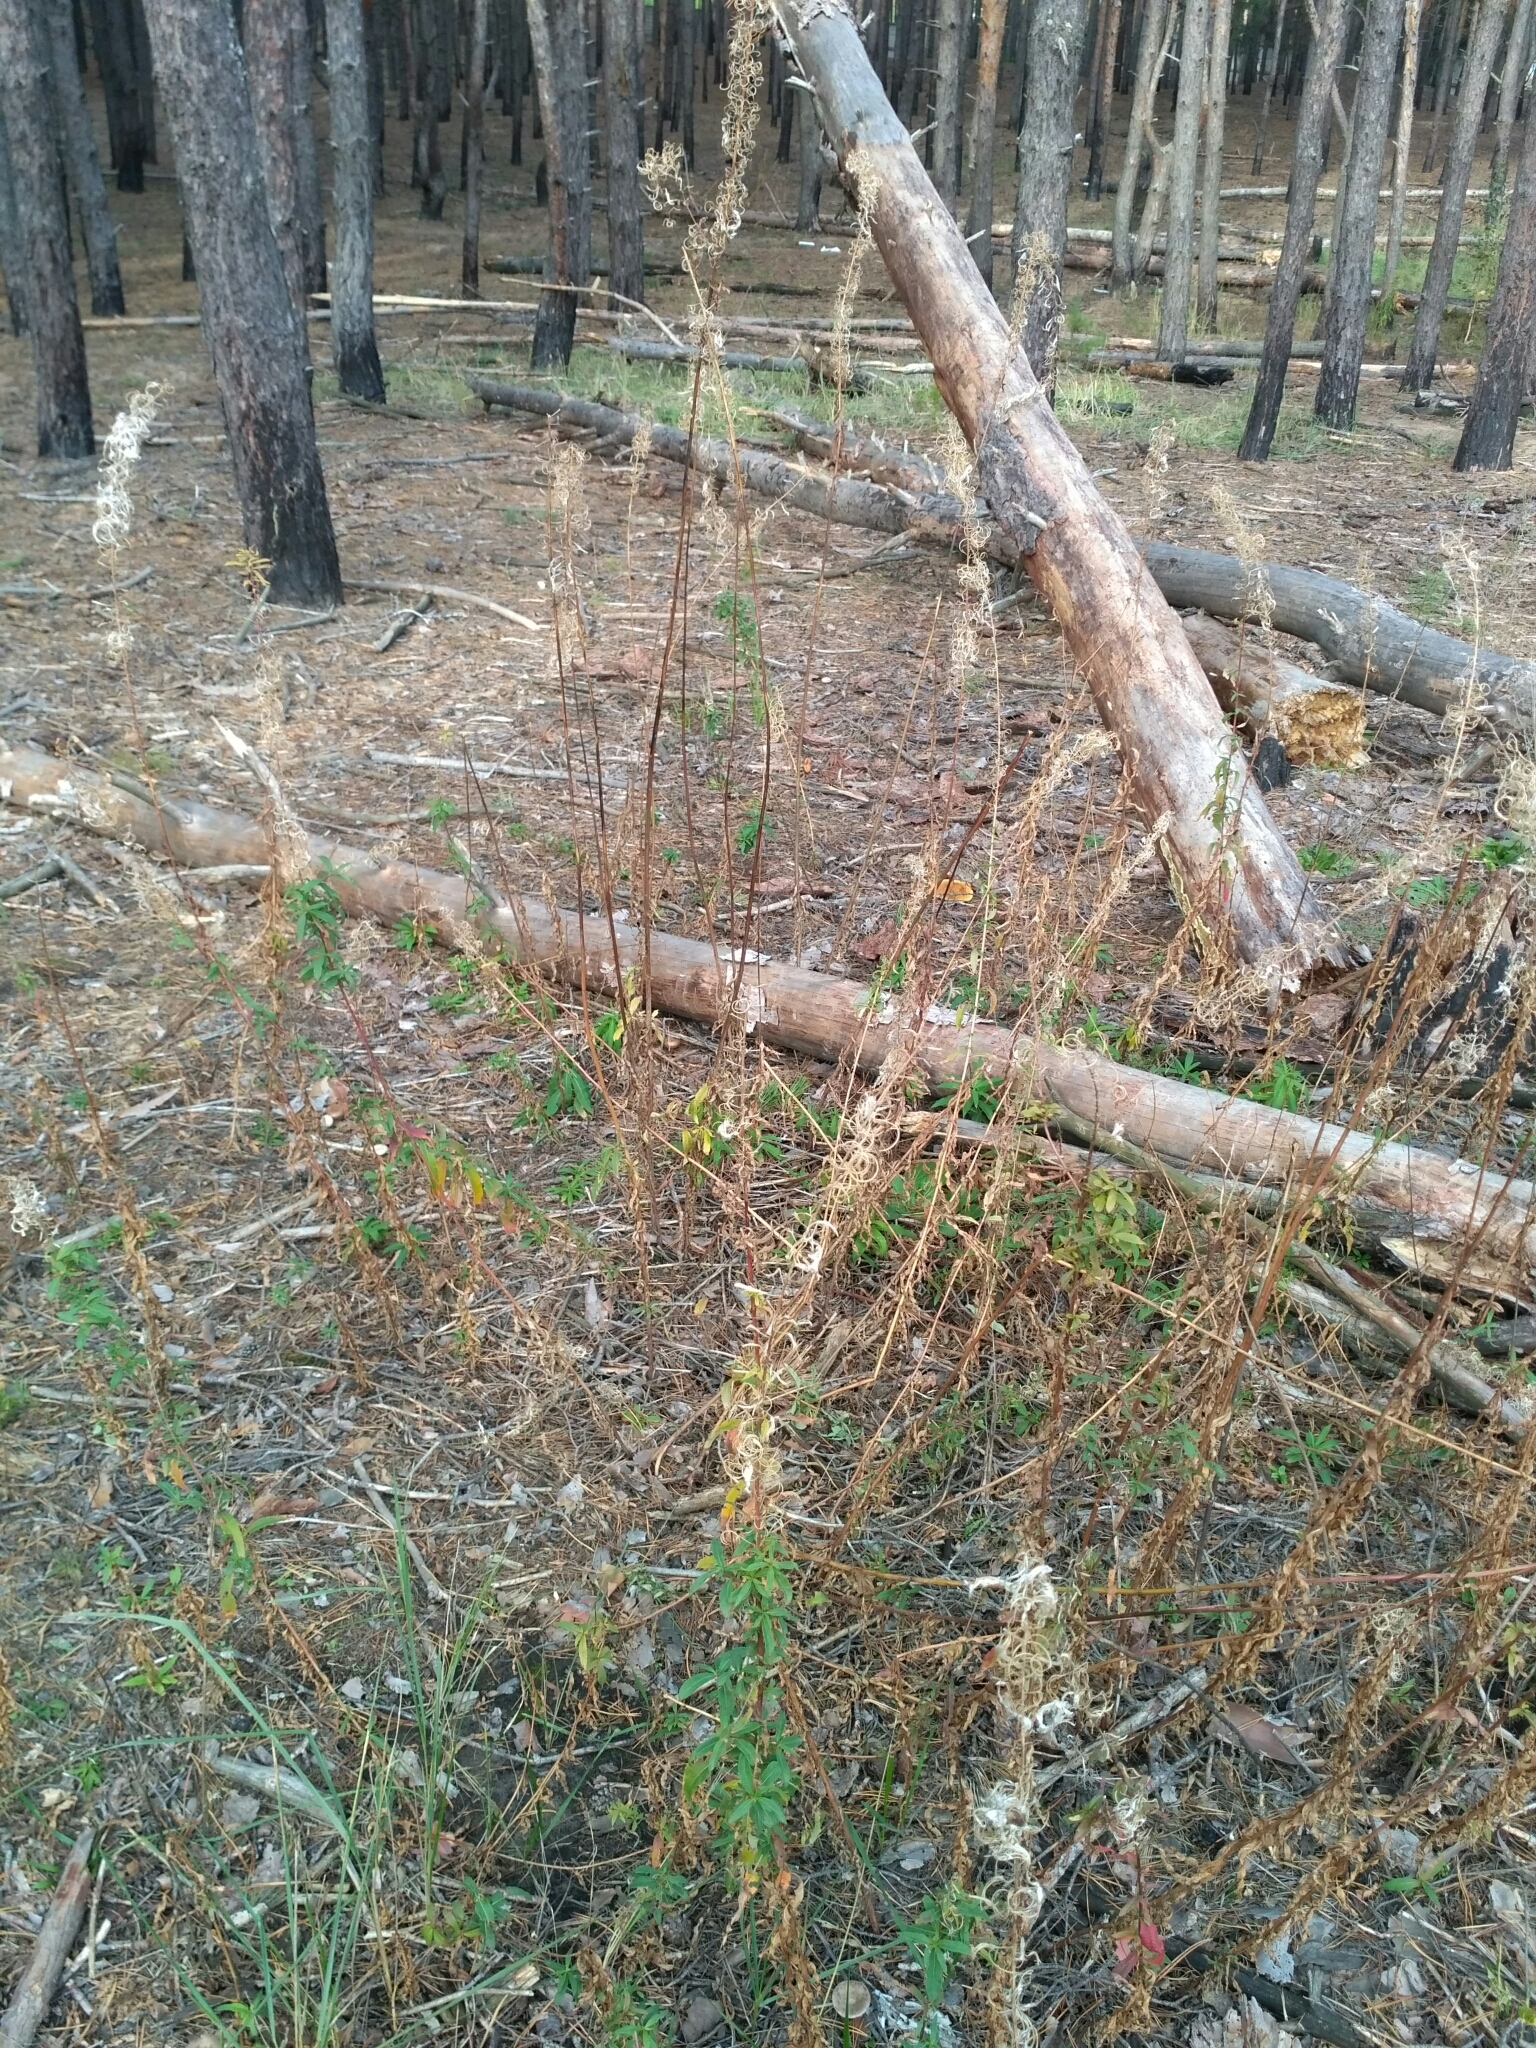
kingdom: Plantae
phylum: Tracheophyta
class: Magnoliopsida
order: Myrtales
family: Onagraceae
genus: Chamaenerion
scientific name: Chamaenerion angustifolium
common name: Fireweed
